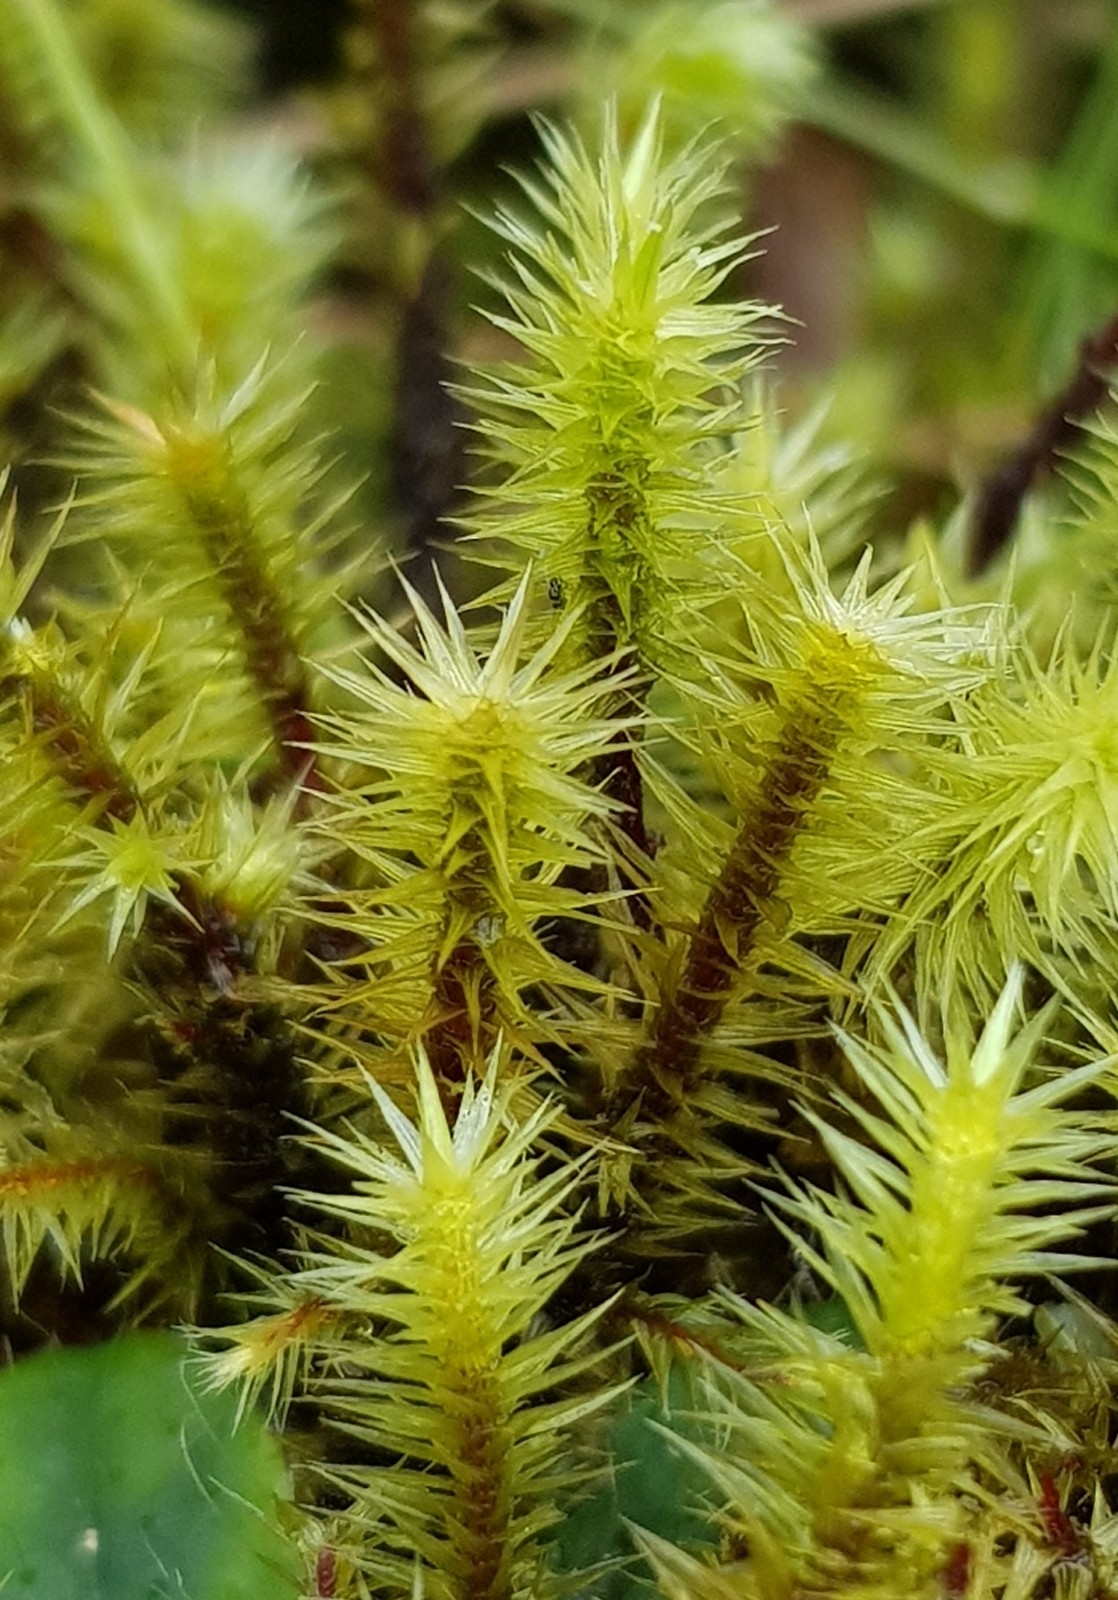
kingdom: Plantae
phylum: Bryophyta
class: Bryopsida
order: Bartramiales
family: Bartramiaceae
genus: Breutelia
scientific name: Breutelia chrysocoma
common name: Bottle-brush moss
